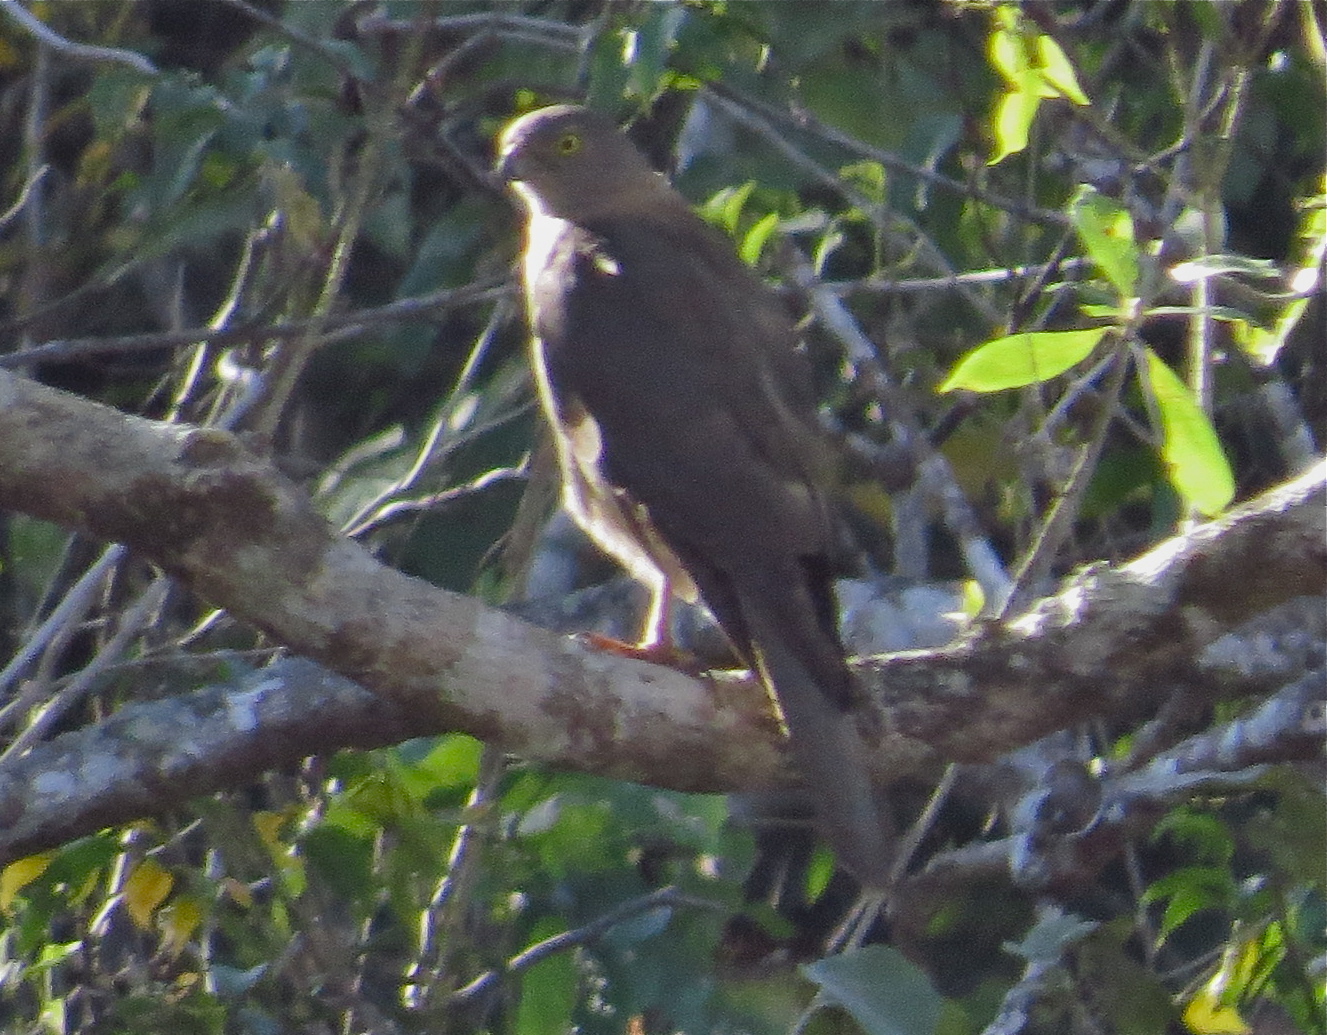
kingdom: Animalia
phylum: Chordata
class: Aves
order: Accipitriformes
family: Accipitridae
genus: Accipiter
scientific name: Accipiter fasciatus
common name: Brown goshawk
